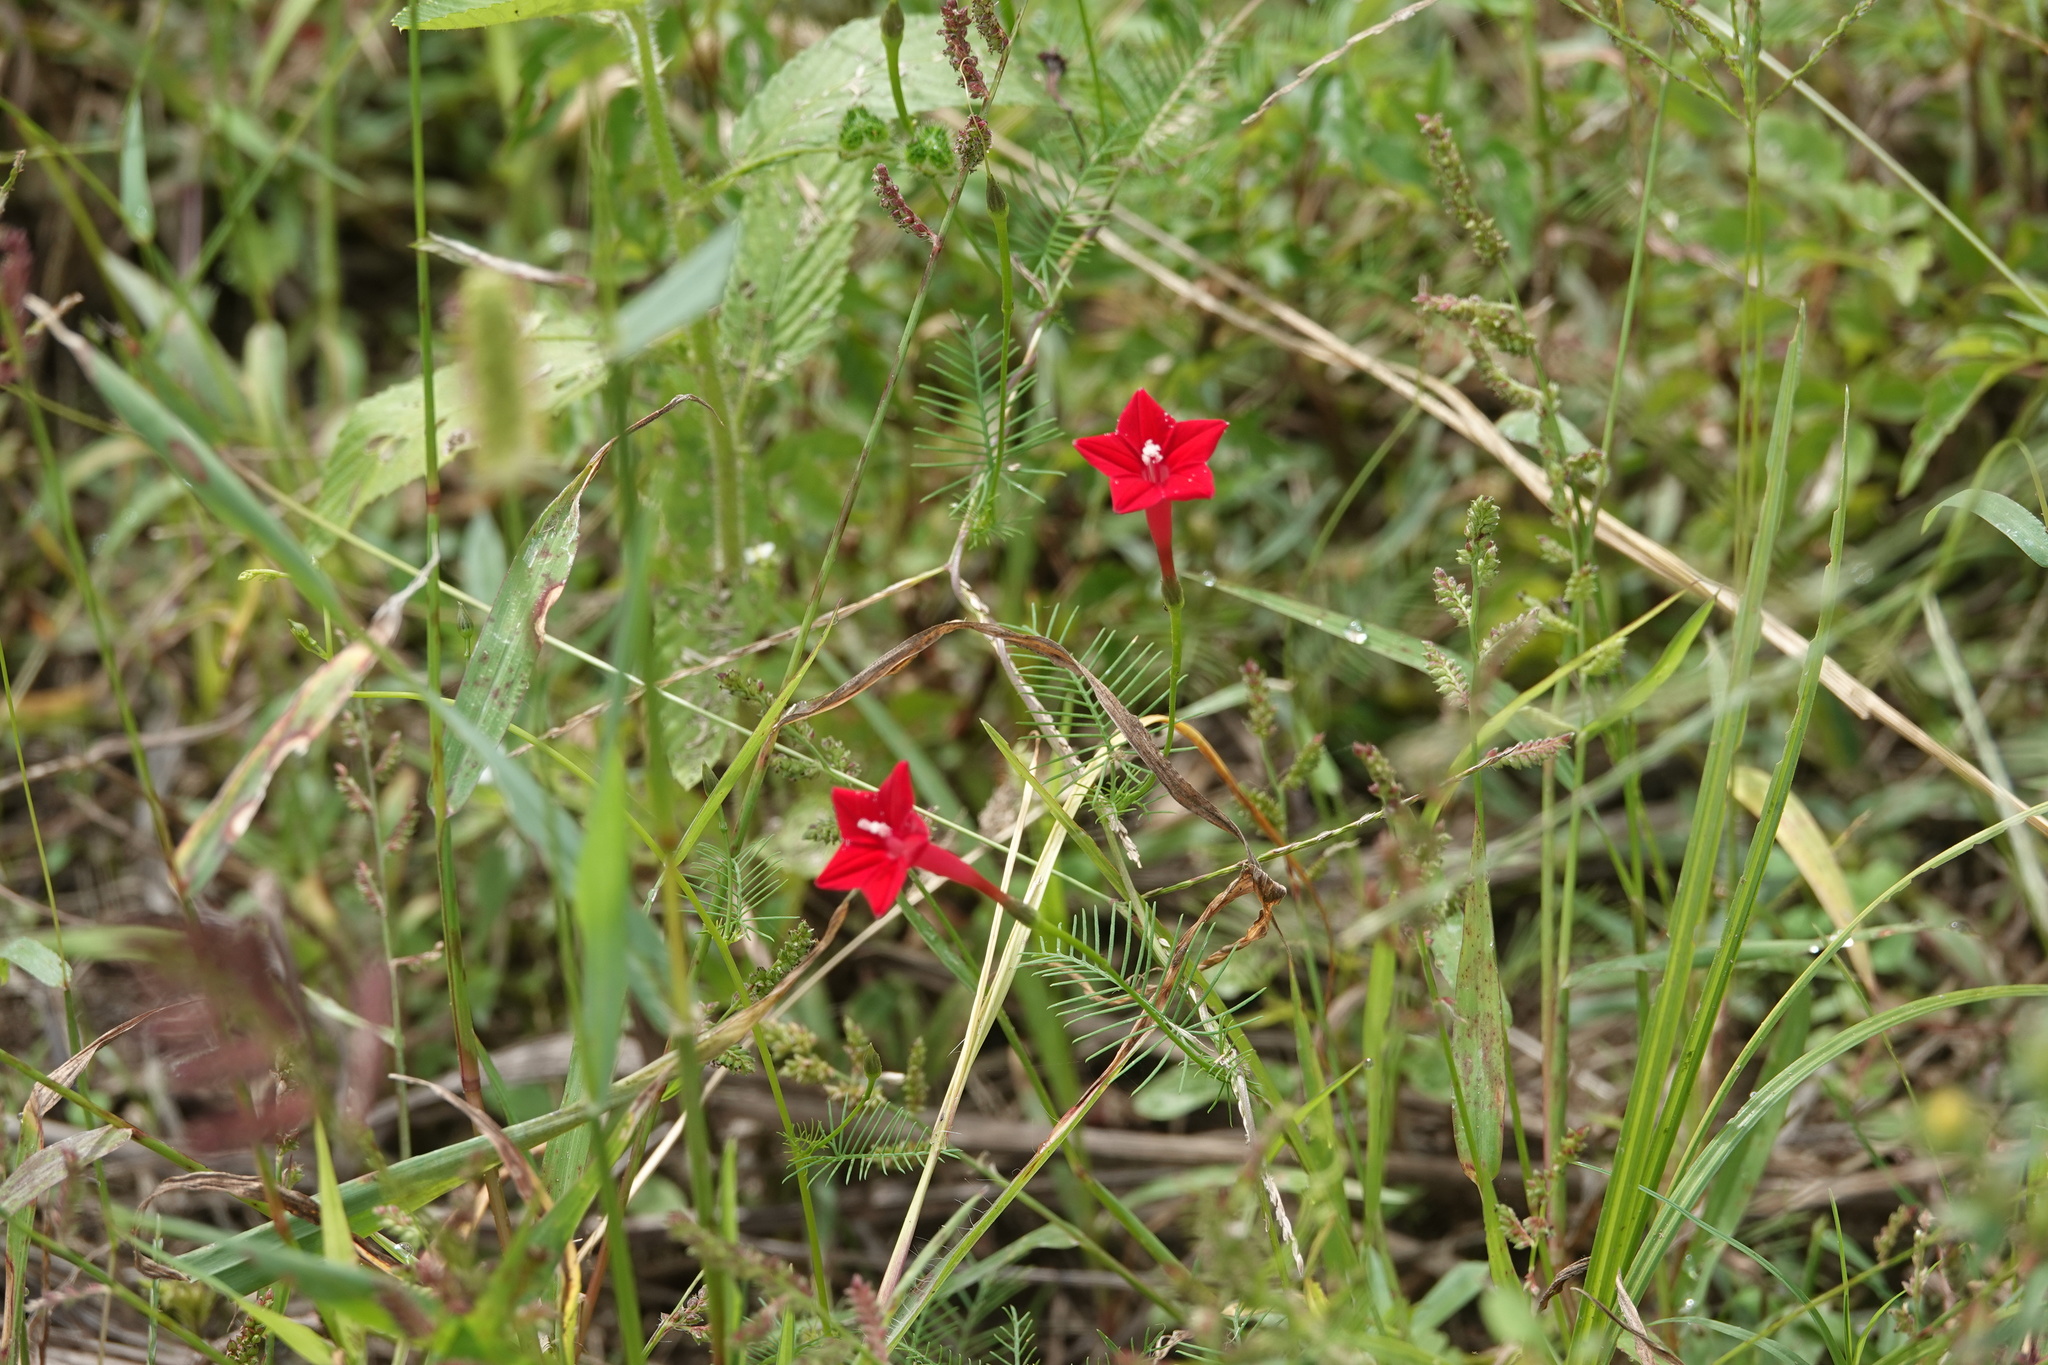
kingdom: Plantae
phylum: Tracheophyta
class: Magnoliopsida
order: Solanales
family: Convolvulaceae
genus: Ipomoea
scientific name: Ipomoea quamoclit
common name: Cypress vine
